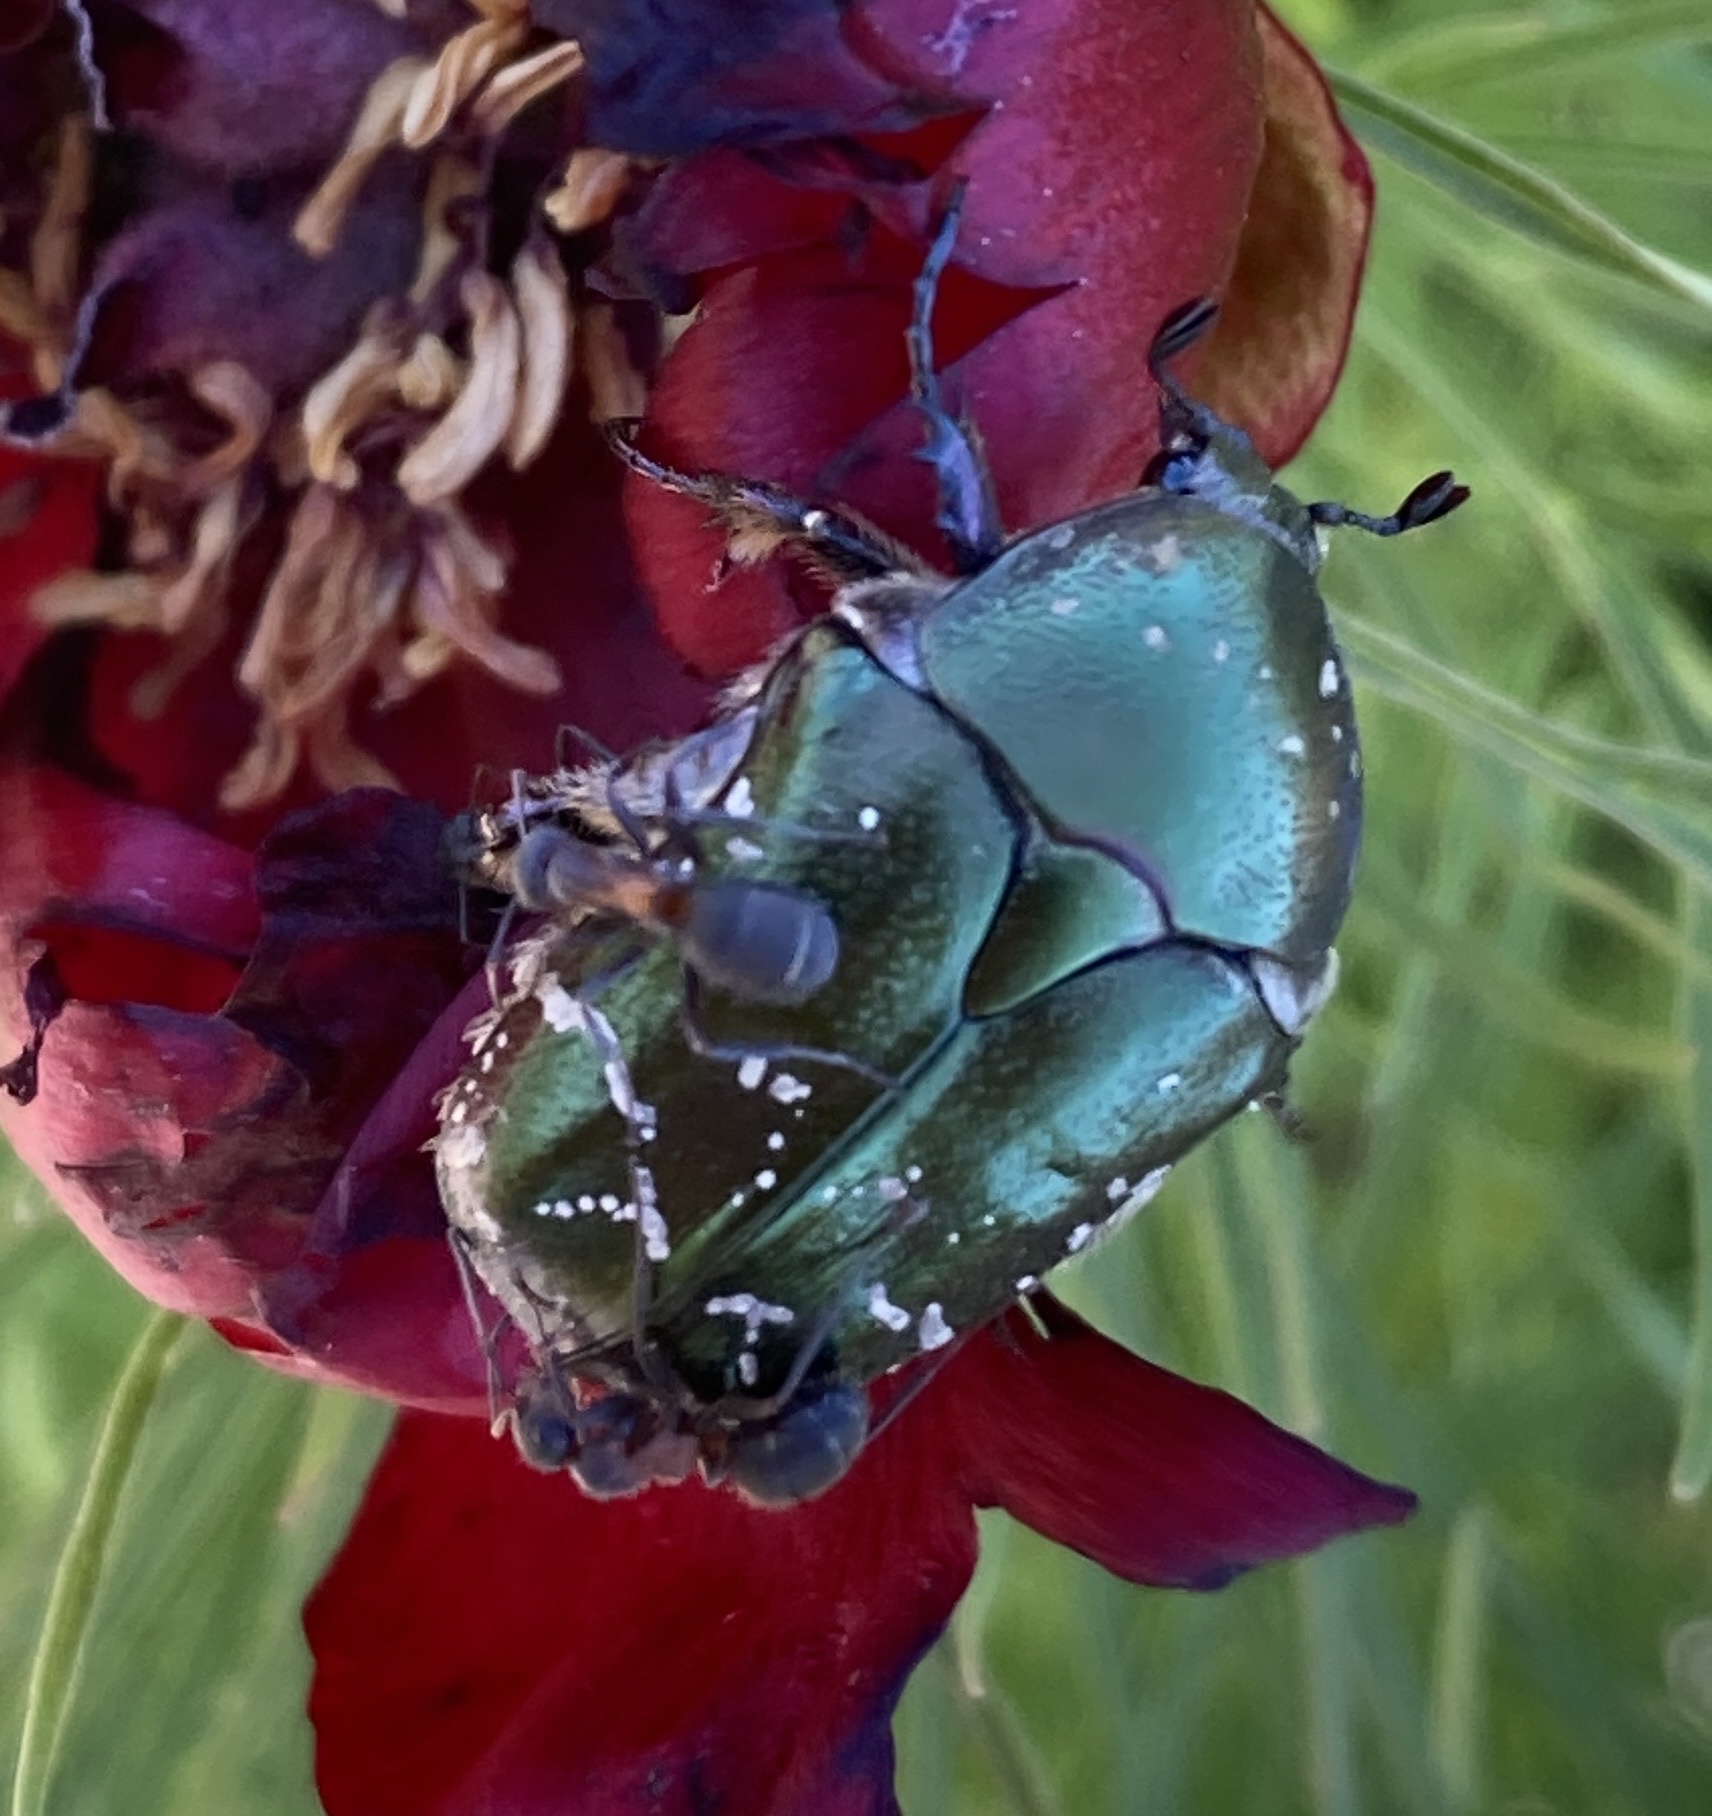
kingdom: Animalia
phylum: Arthropoda
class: Insecta
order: Coleoptera
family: Scarabaeidae
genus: Protaetia
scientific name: Protaetia cuprea
